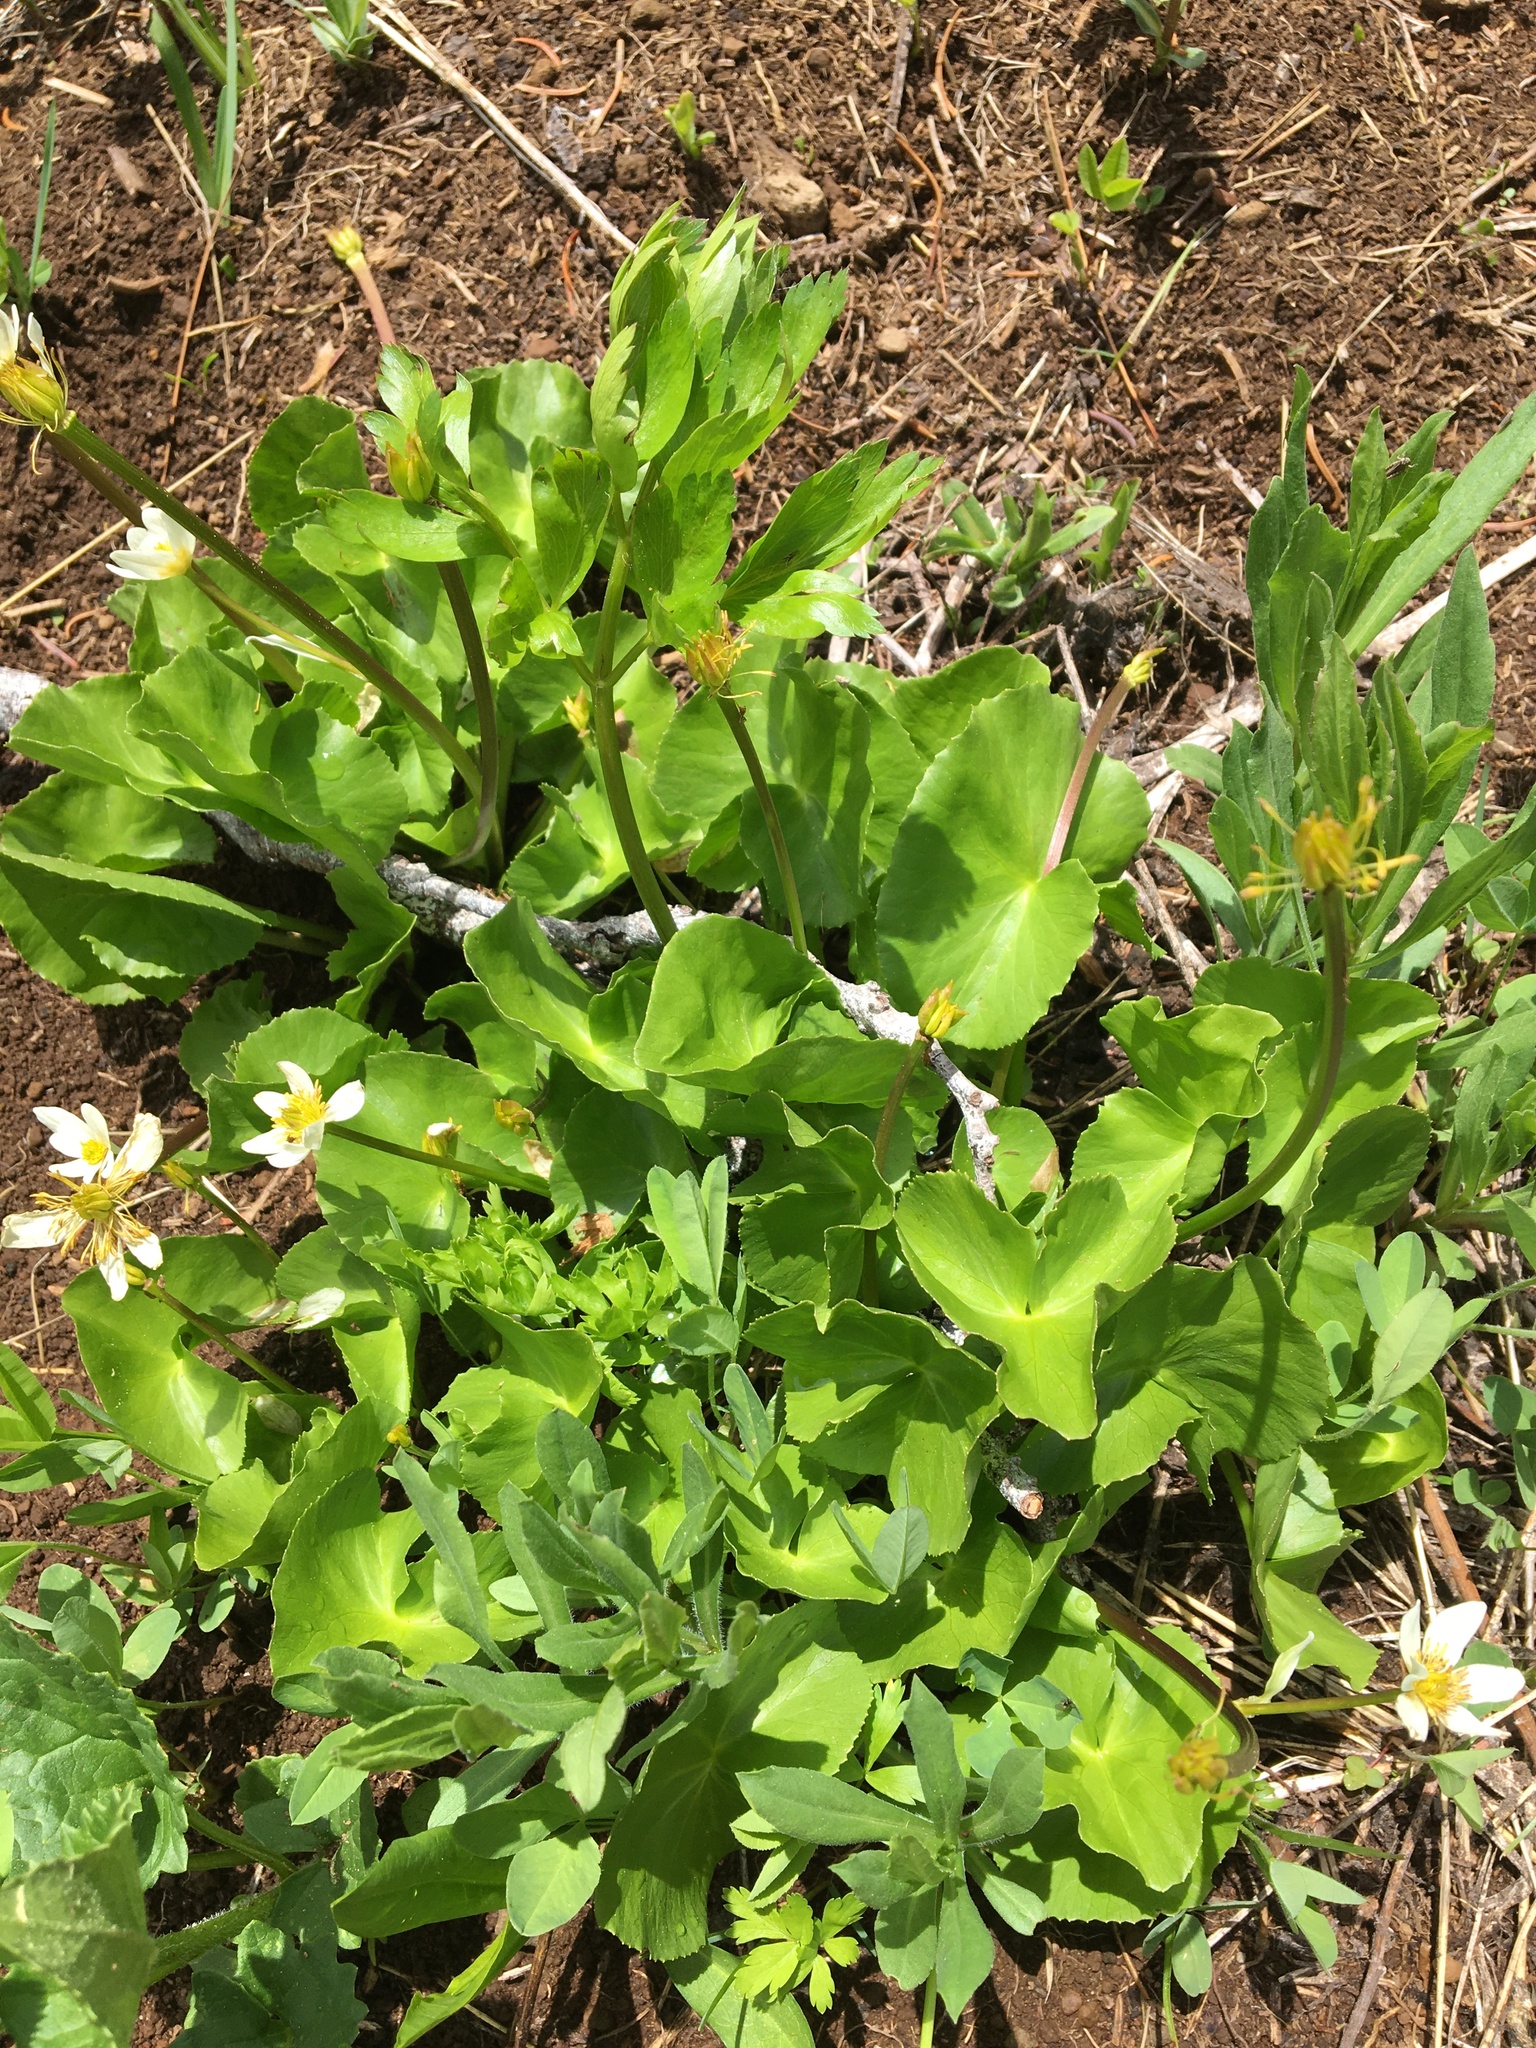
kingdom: Plantae
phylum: Tracheophyta
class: Magnoliopsida
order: Ranunculales
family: Ranunculaceae
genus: Caltha
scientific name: Caltha leptosepala
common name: Elkslip
